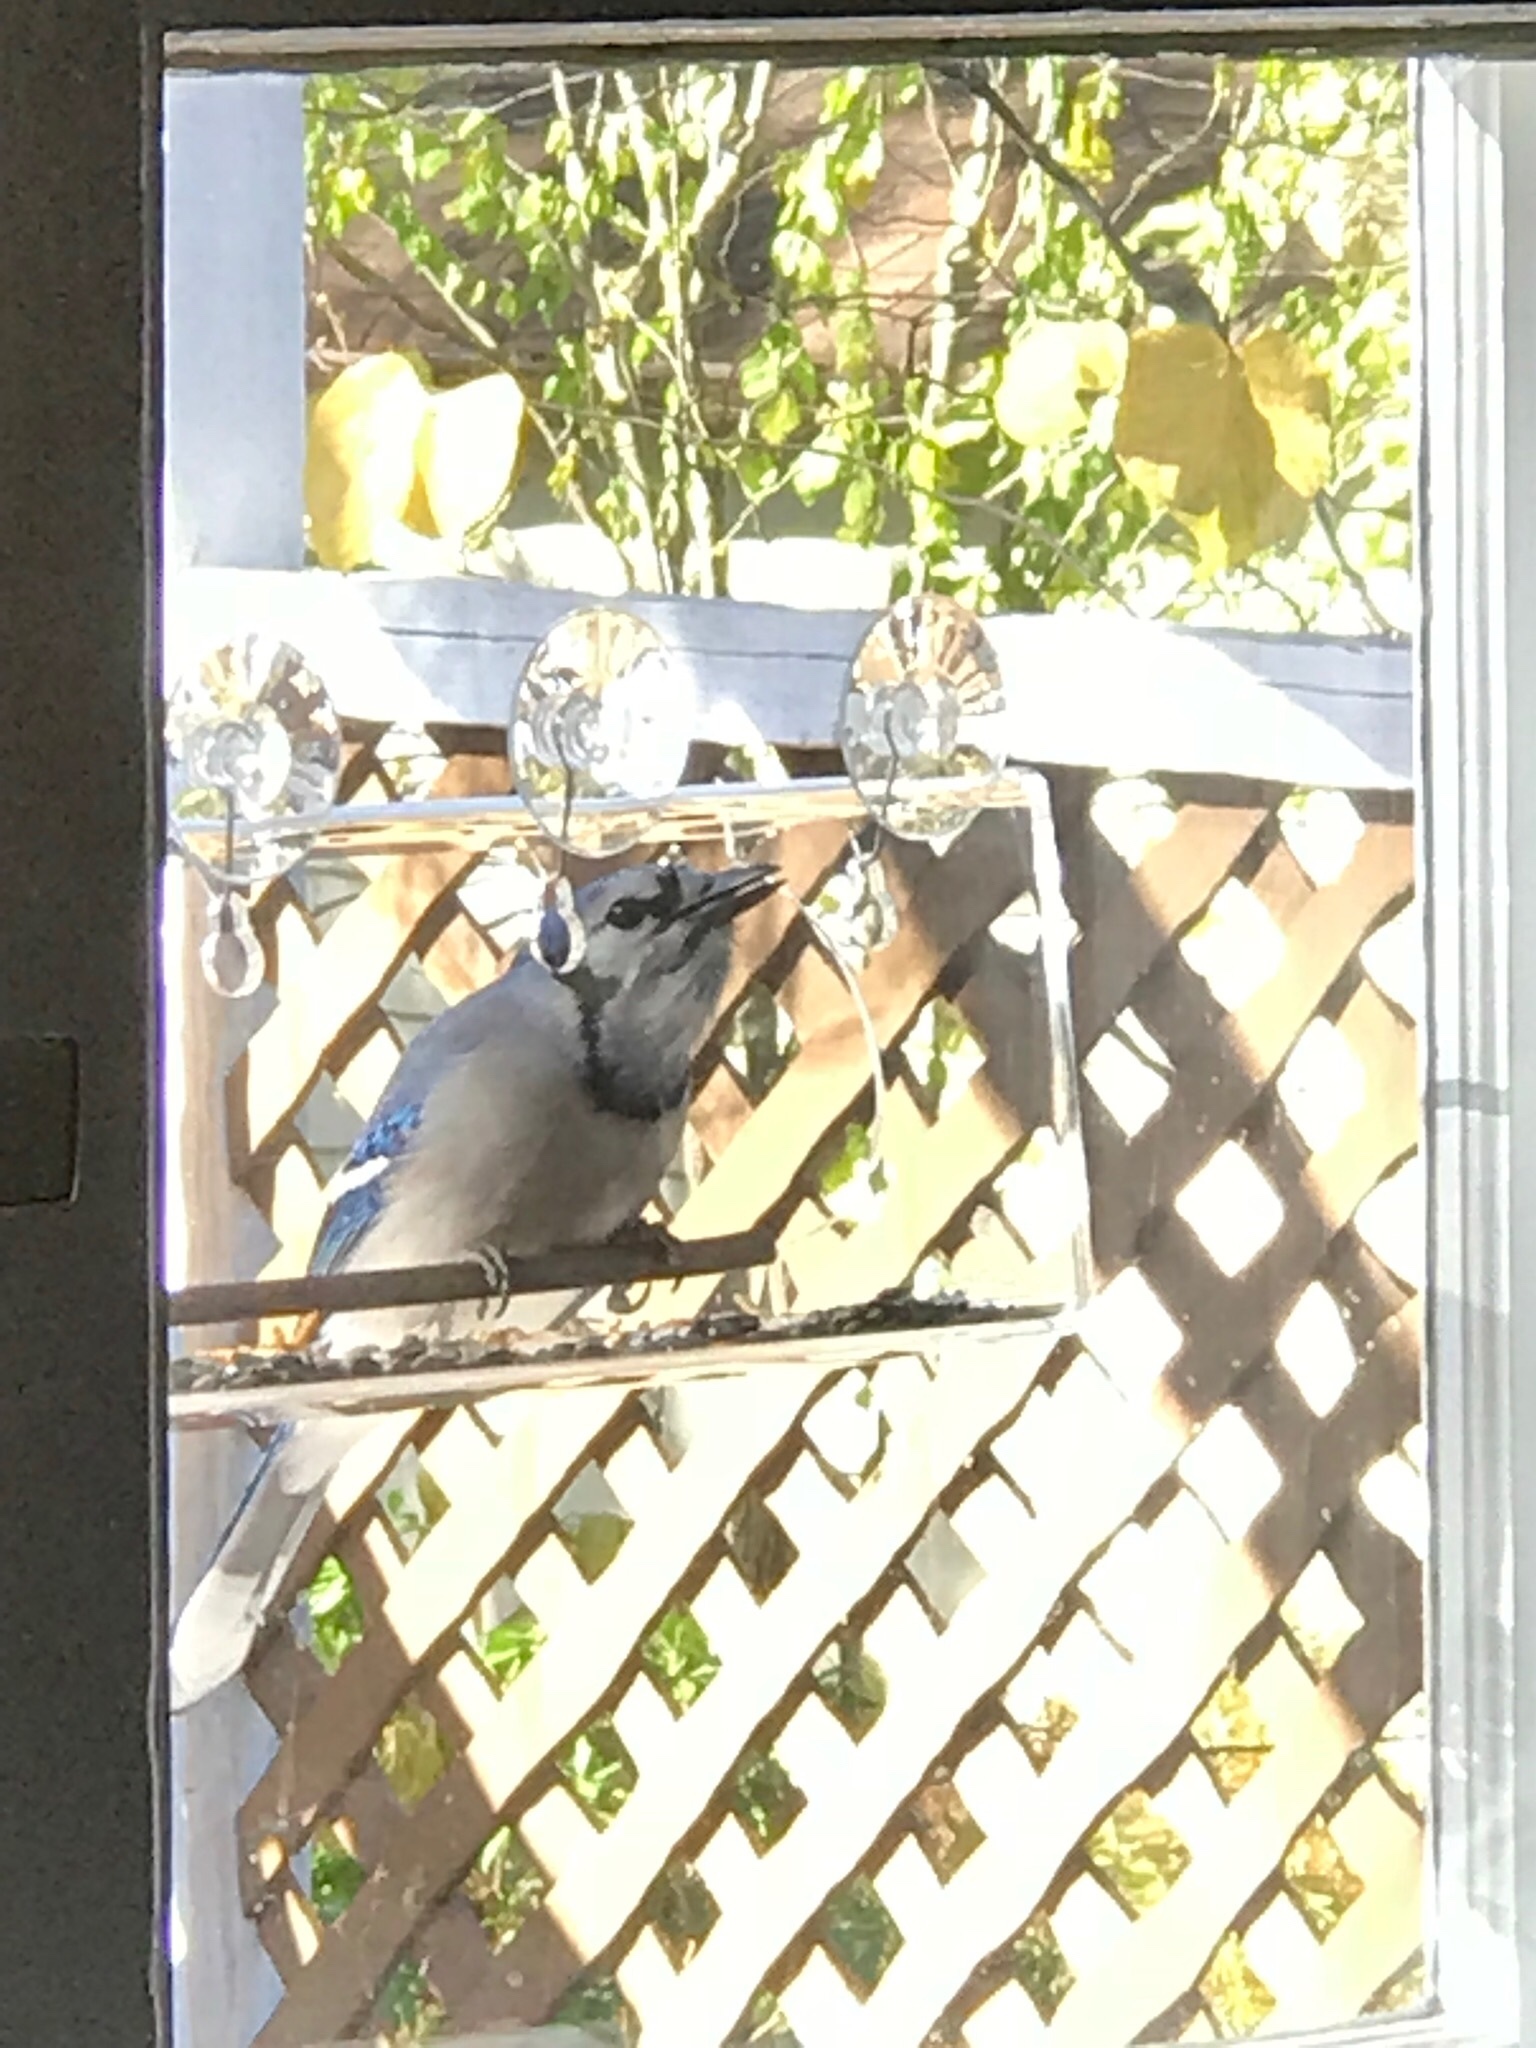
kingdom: Animalia
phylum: Chordata
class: Aves
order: Passeriformes
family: Corvidae
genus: Cyanocitta
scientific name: Cyanocitta cristata
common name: Blue jay
